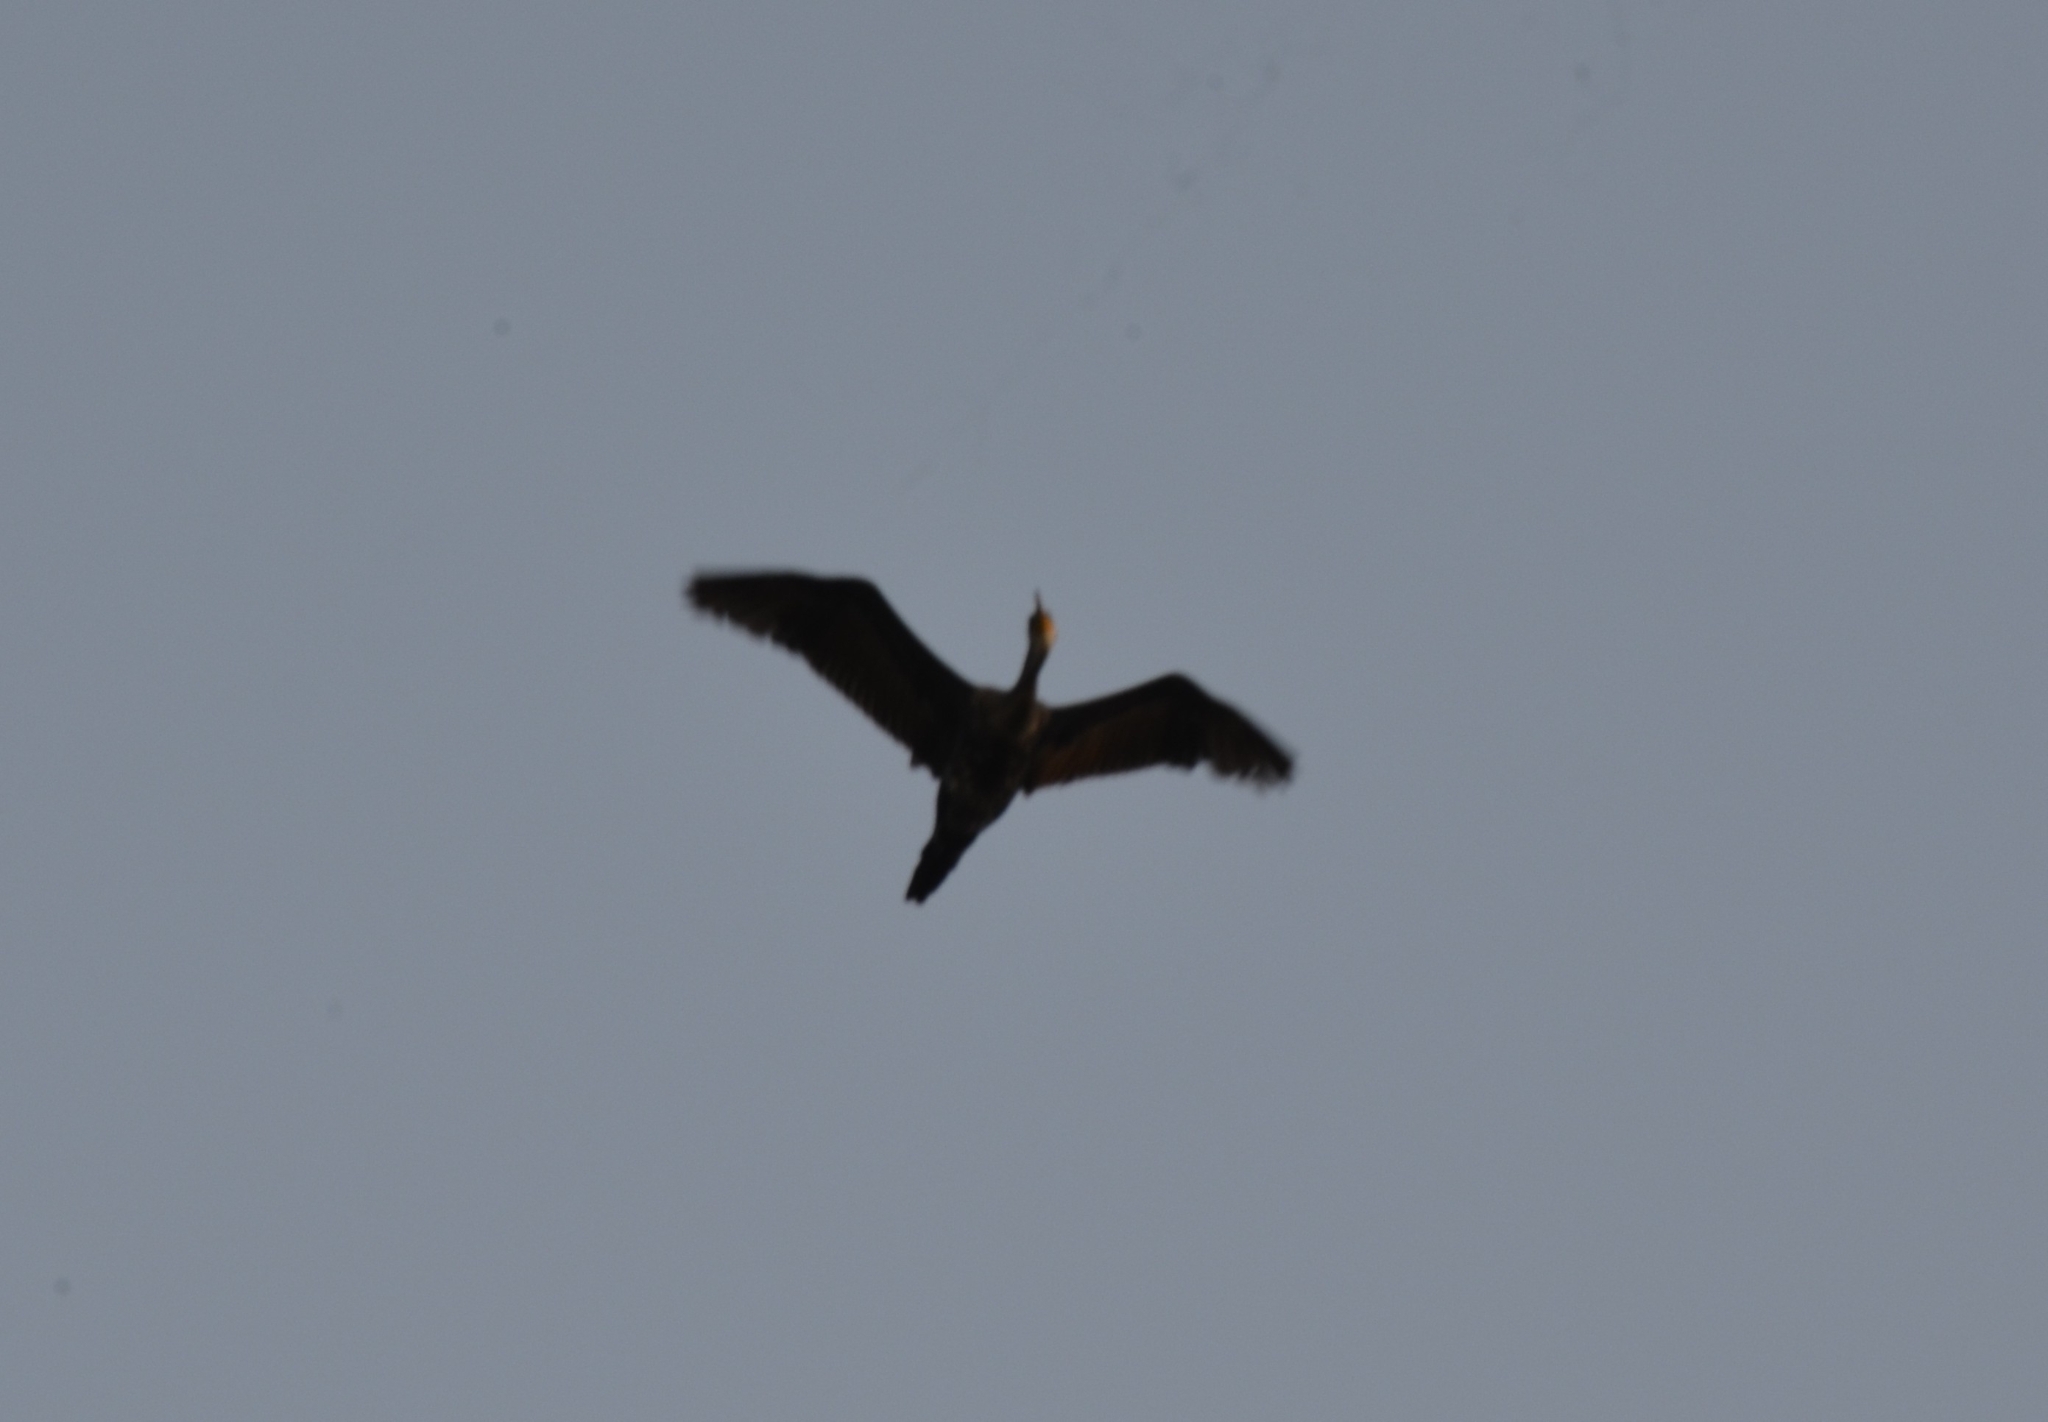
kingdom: Animalia
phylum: Chordata
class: Aves
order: Suliformes
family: Phalacrocoracidae
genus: Phalacrocorax
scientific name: Phalacrocorax fuscicollis
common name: Indian cormorant
